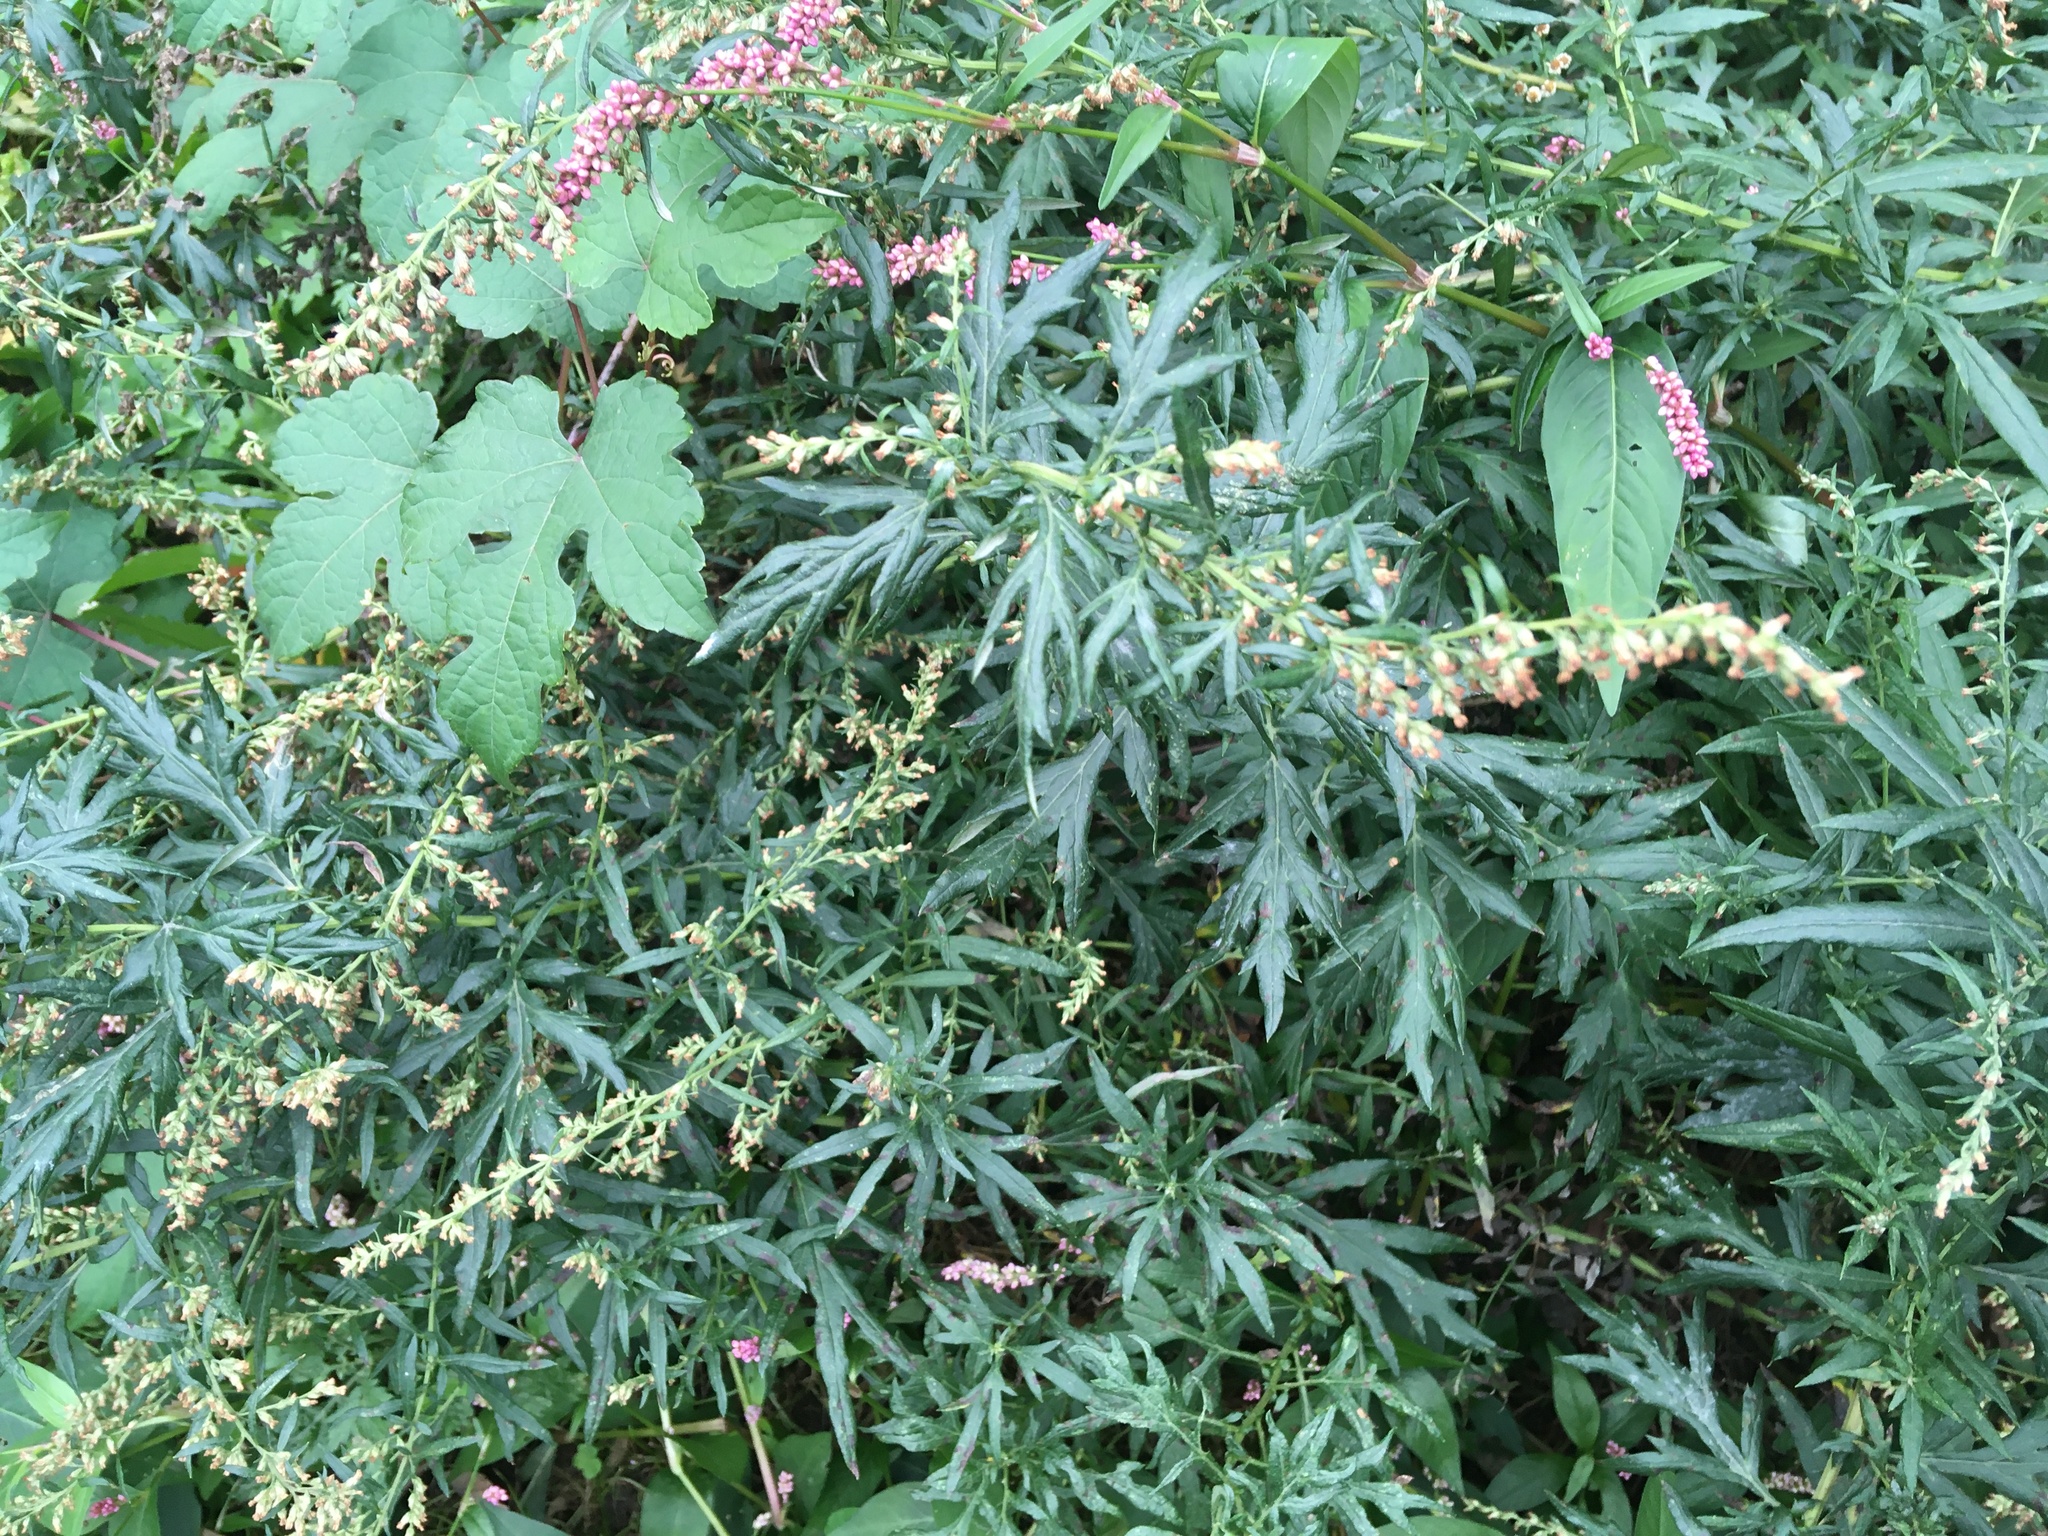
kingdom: Plantae
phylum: Tracheophyta
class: Magnoliopsida
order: Asterales
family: Asteraceae
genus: Artemisia
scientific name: Artemisia vulgaris
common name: Mugwort
